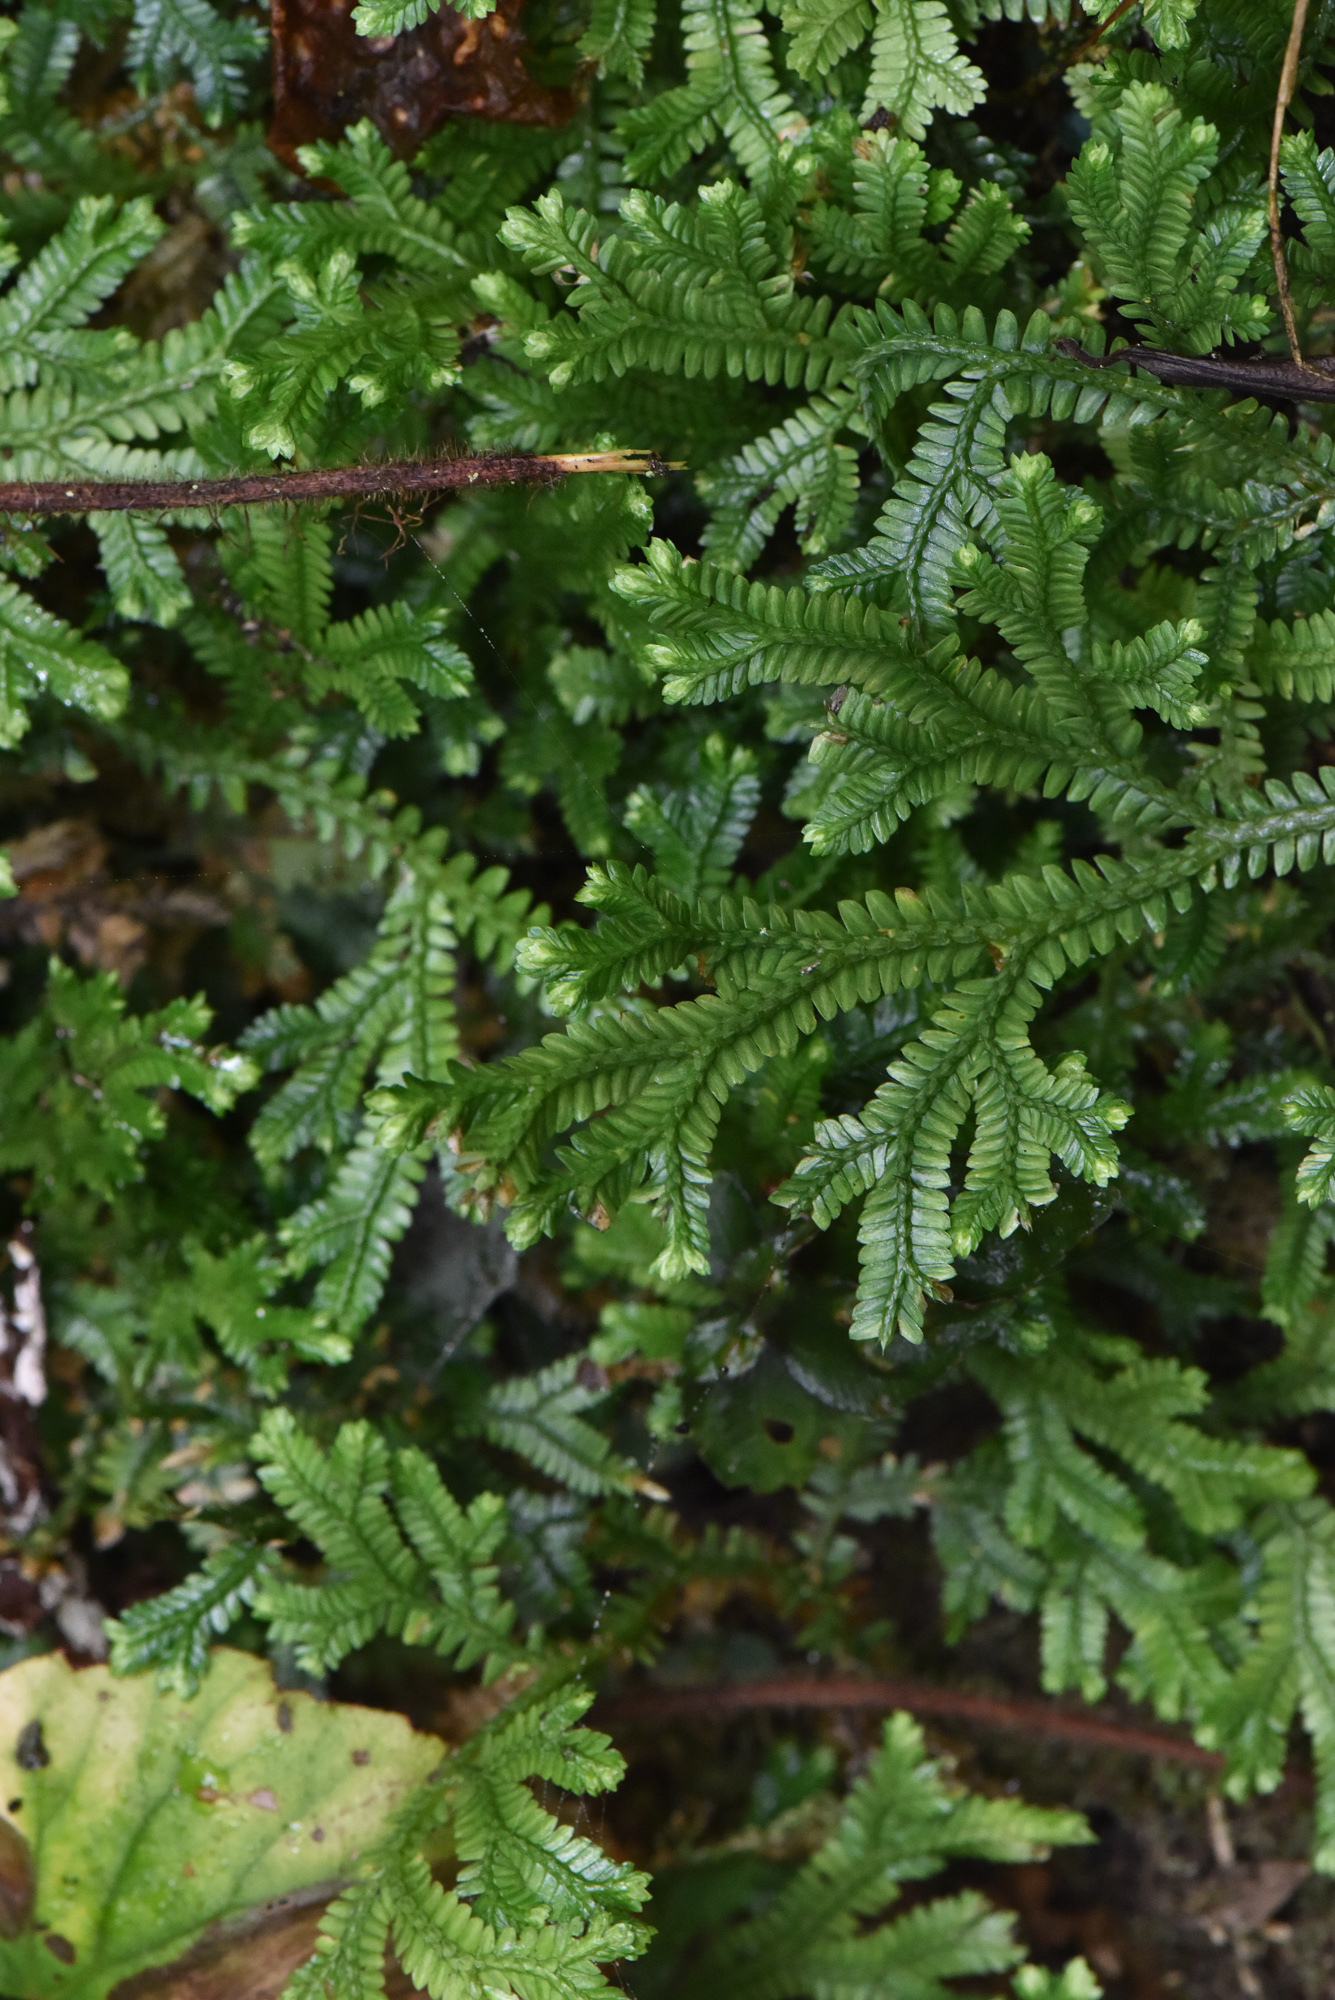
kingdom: Plantae
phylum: Tracheophyta
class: Lycopodiopsida
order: Selaginellales
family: Selaginellaceae
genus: Selaginella
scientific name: Selaginella doederleinii
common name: Greater selaginella
